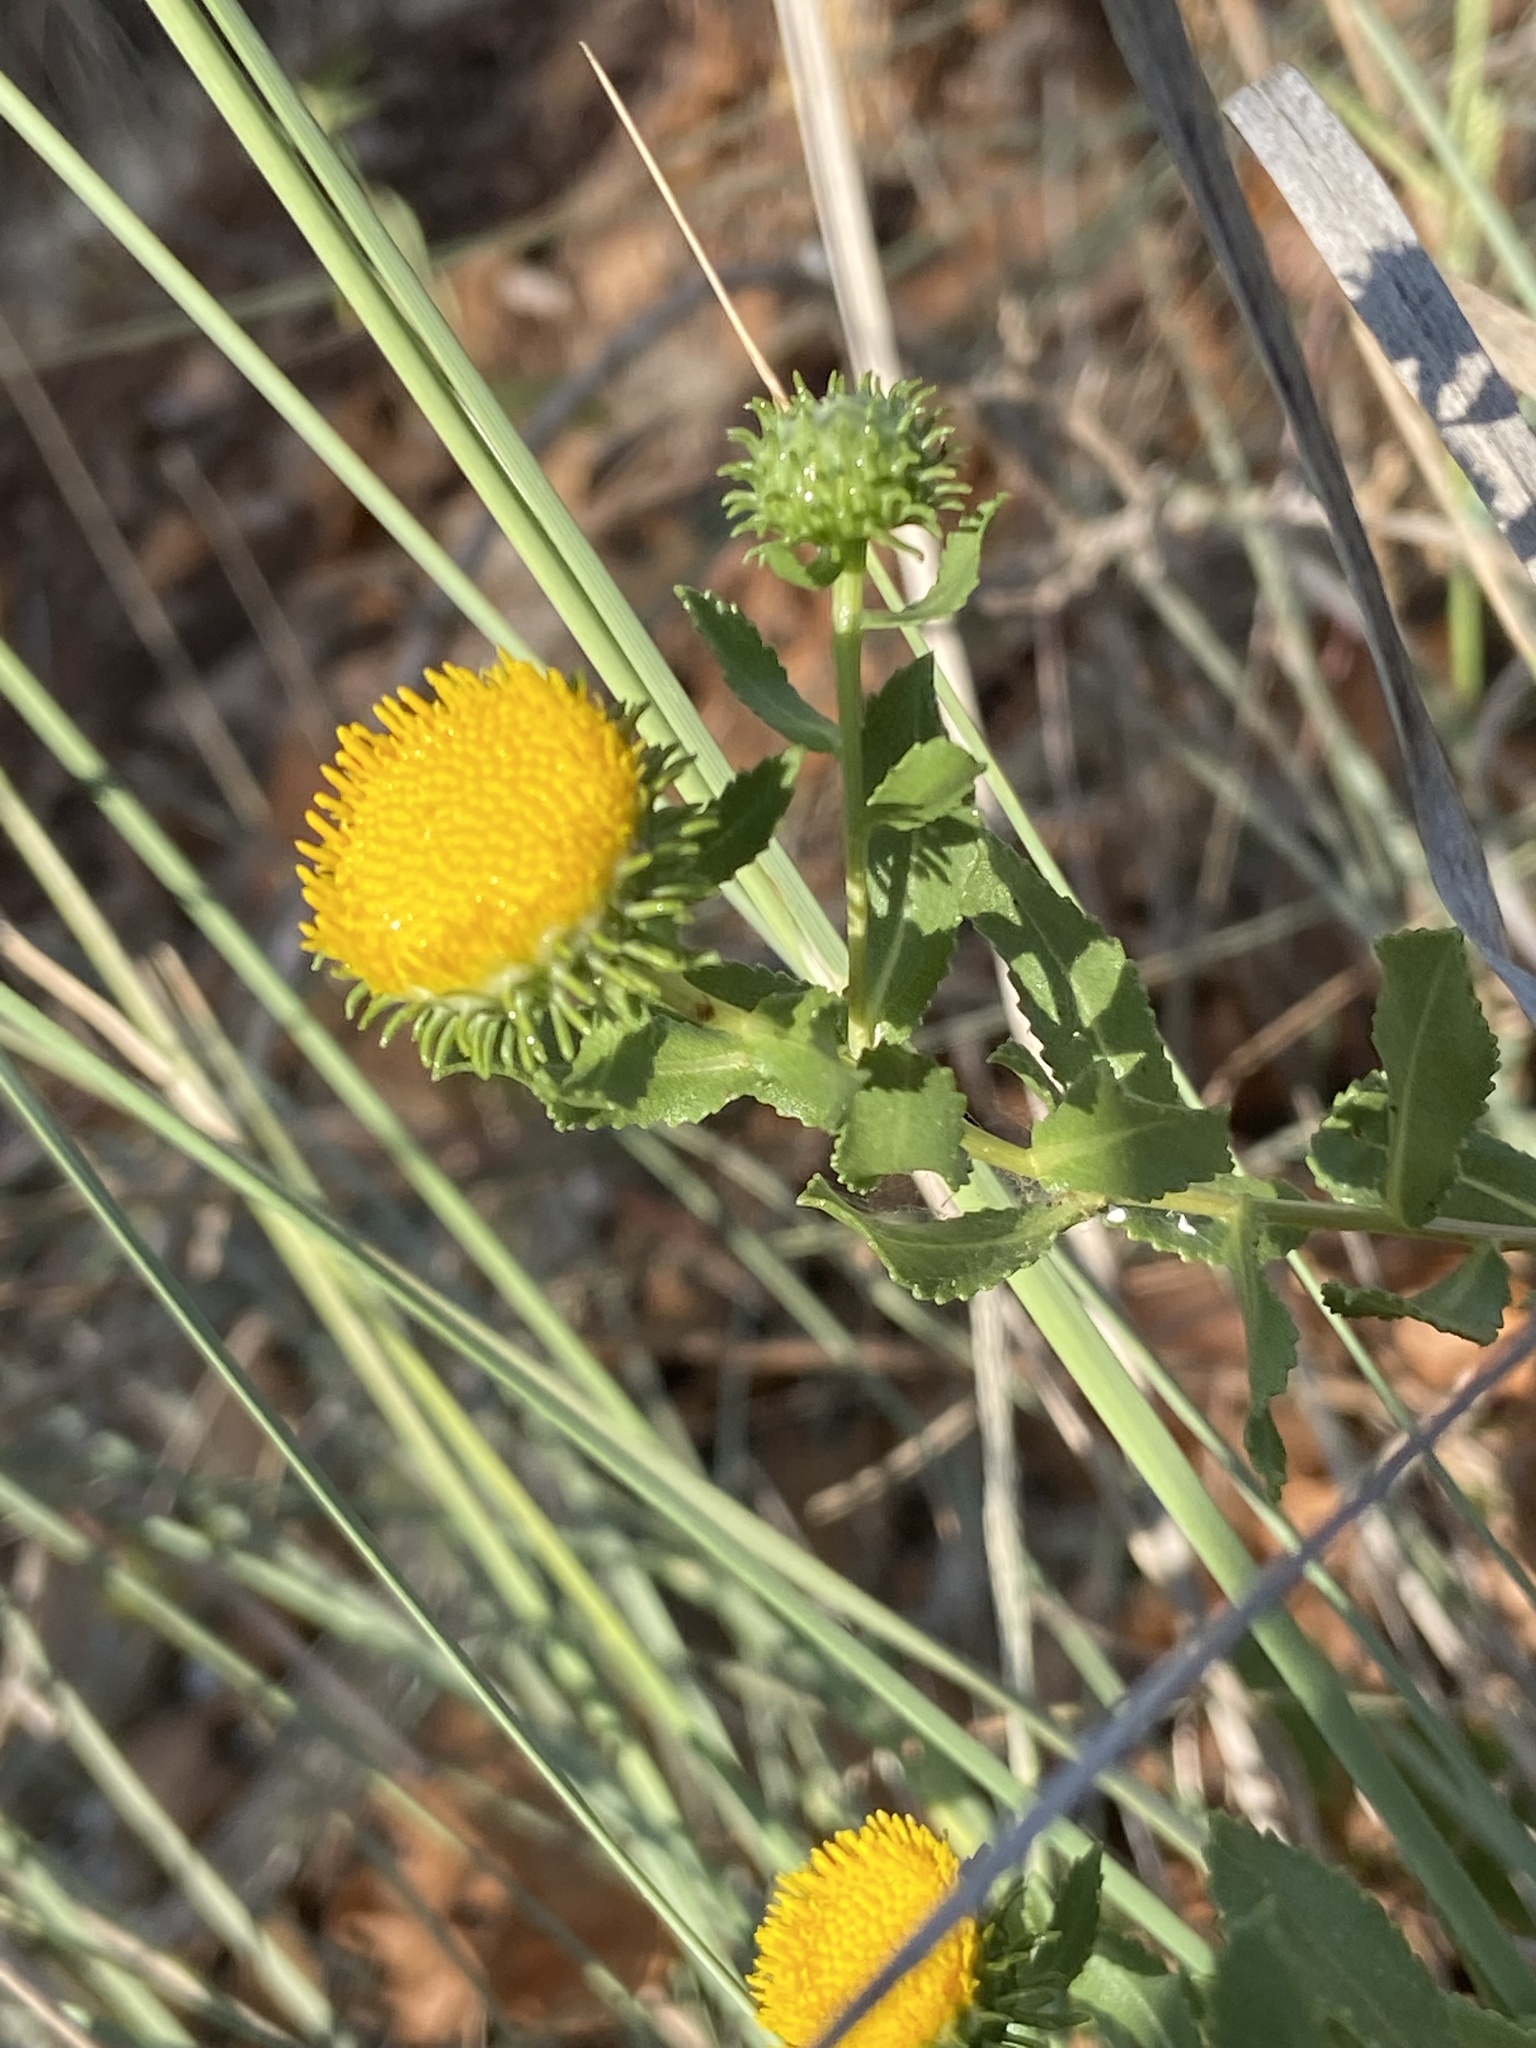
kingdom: Plantae
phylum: Tracheophyta
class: Magnoliopsida
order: Asterales
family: Asteraceae
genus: Grindelia
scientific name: Grindelia nuda
